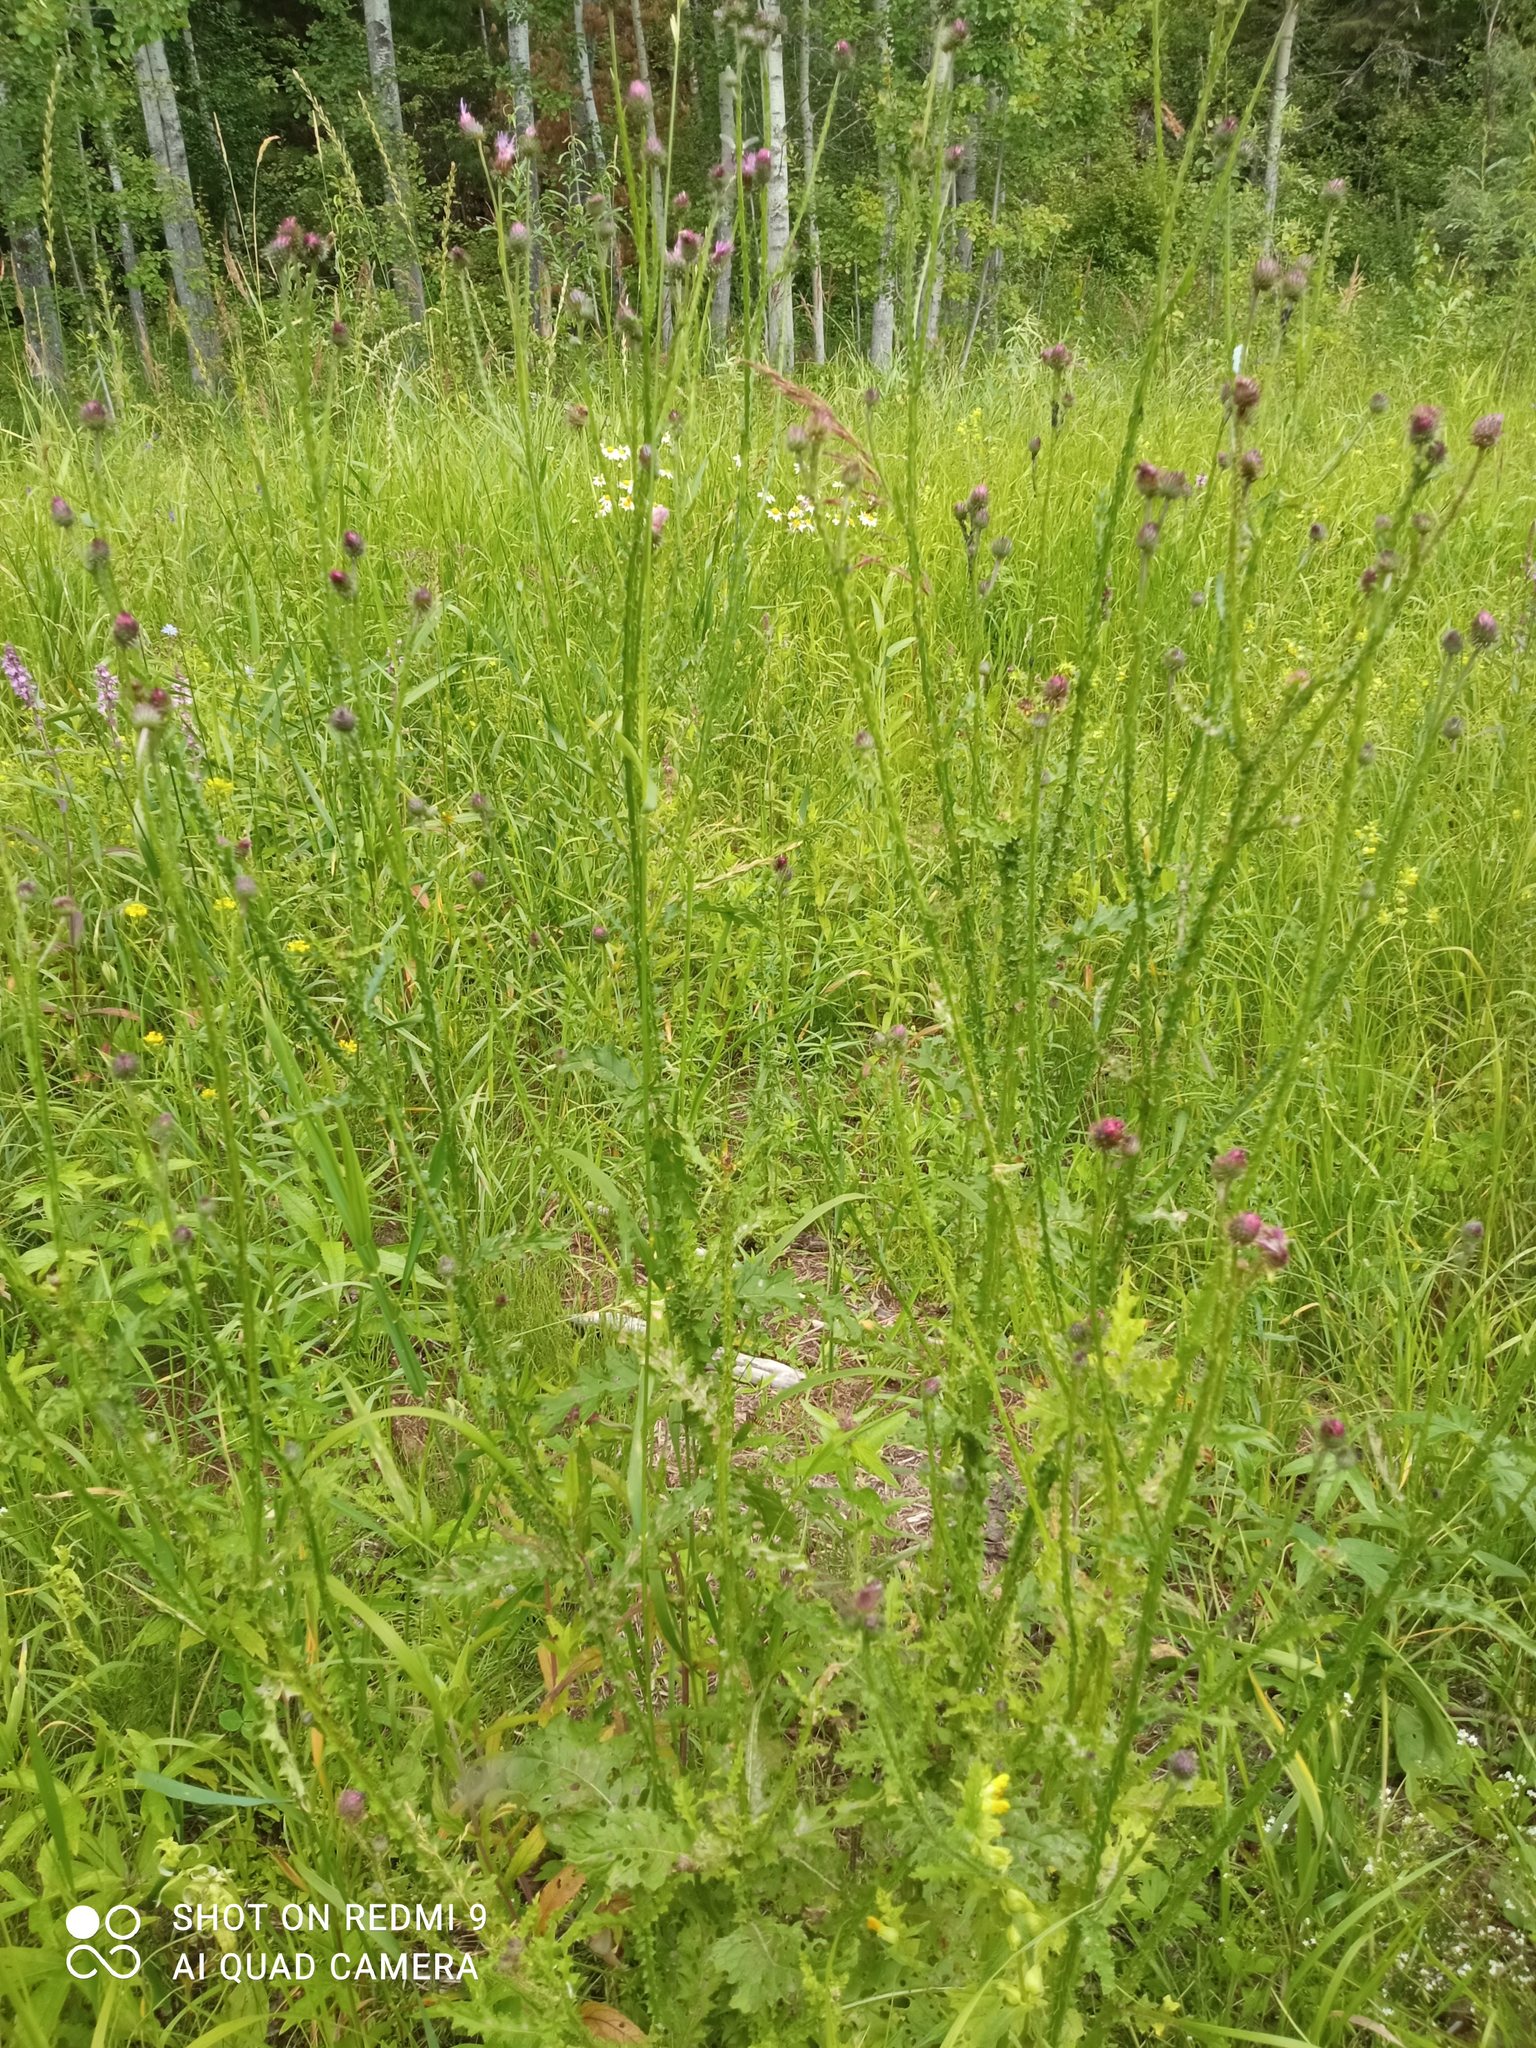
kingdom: Plantae
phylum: Tracheophyta
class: Magnoliopsida
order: Asterales
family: Asteraceae
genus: Cirsium
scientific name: Cirsium palustre
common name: Marsh thistle
